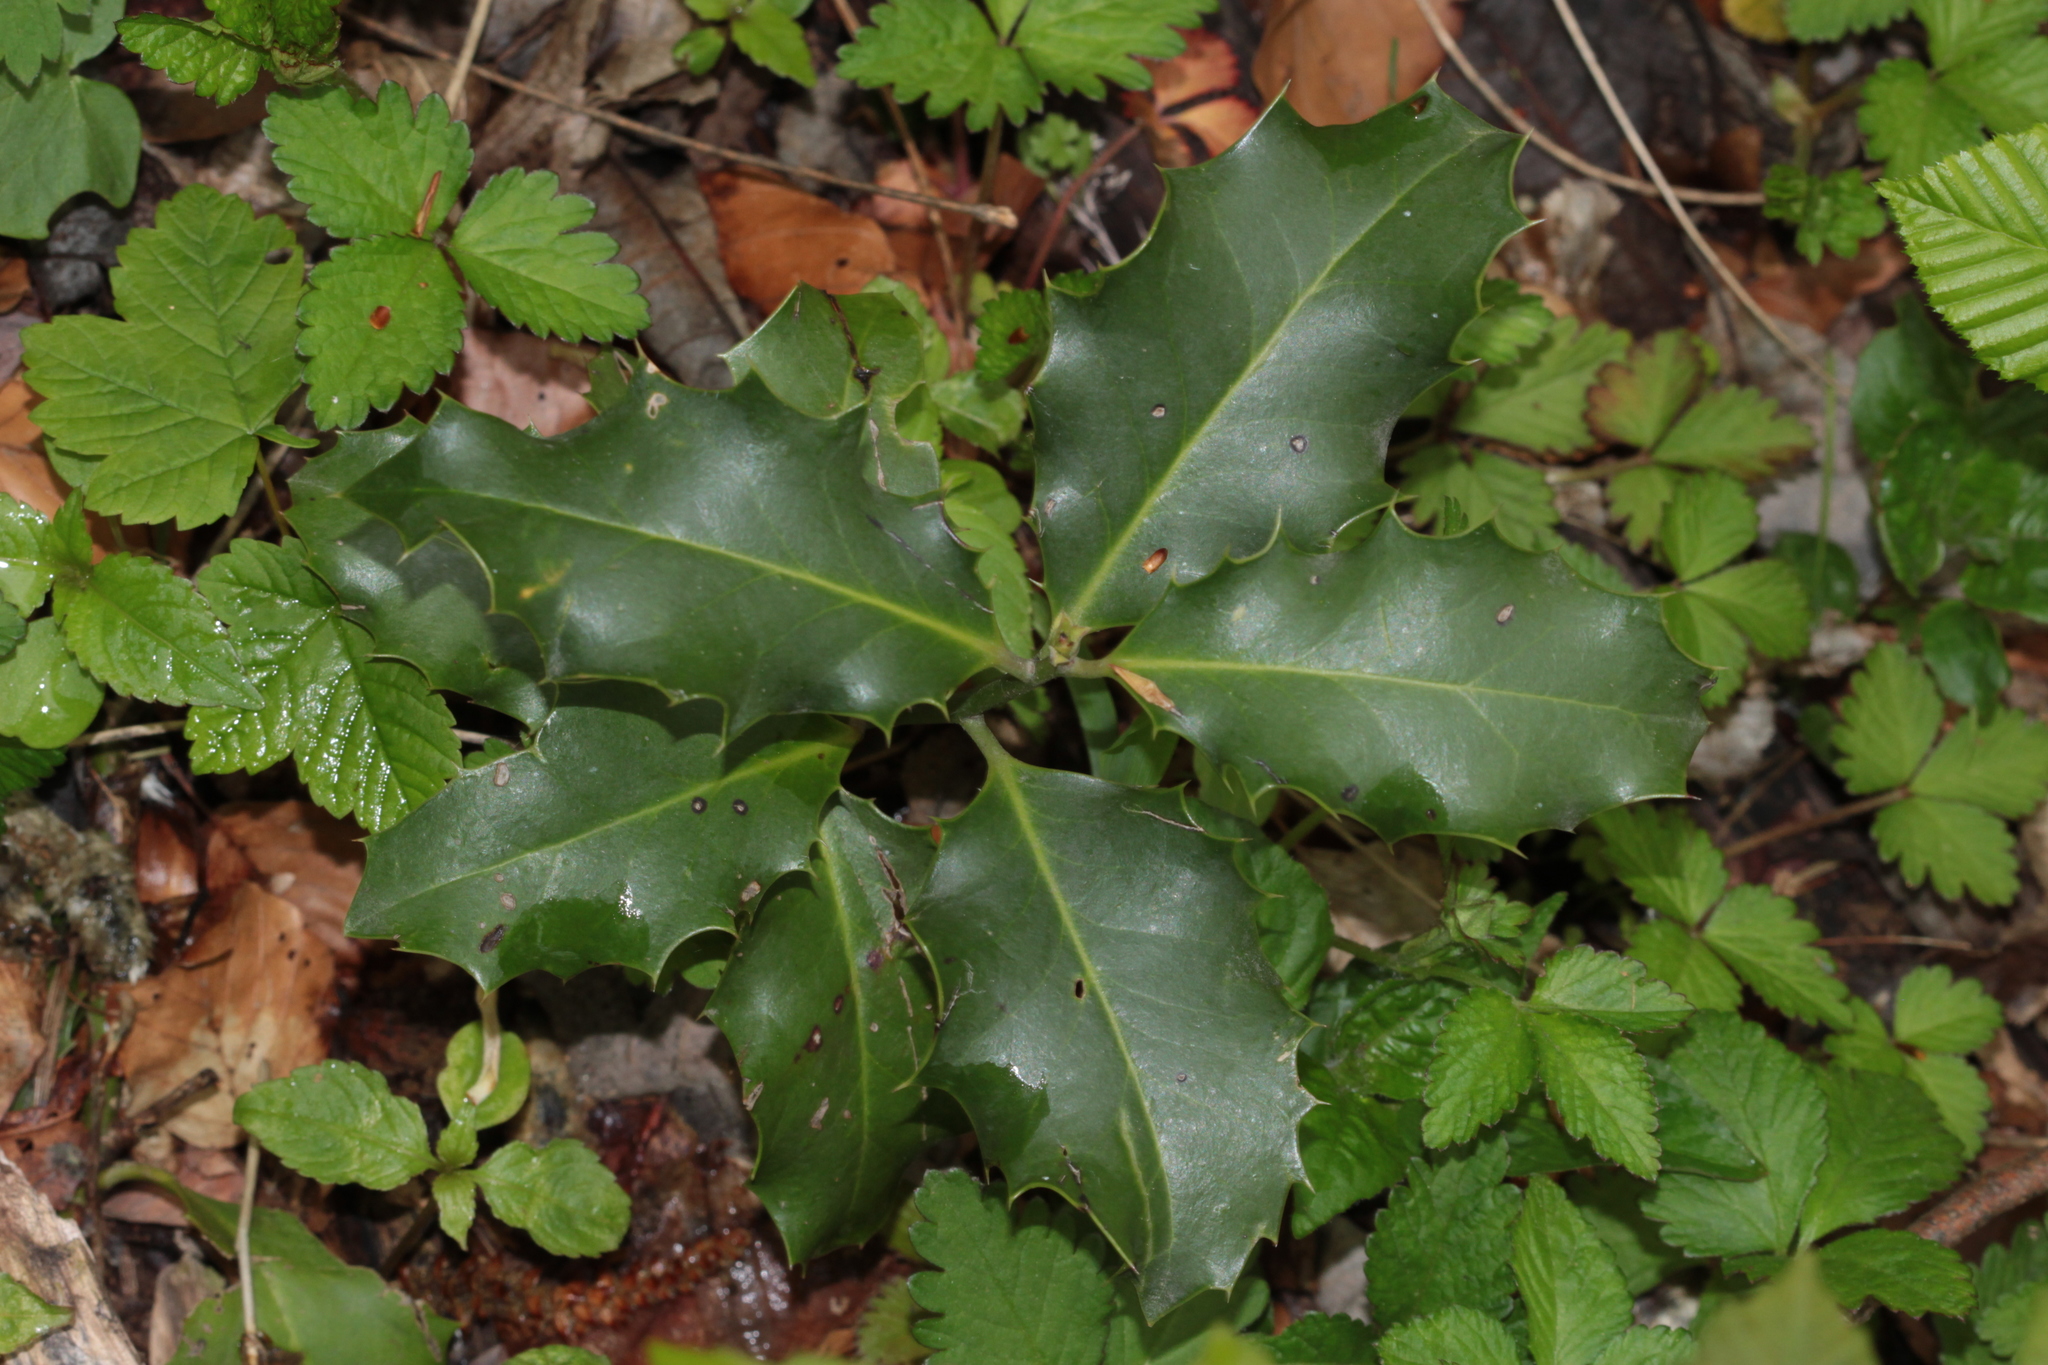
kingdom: Plantae
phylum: Tracheophyta
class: Magnoliopsida
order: Aquifoliales
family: Aquifoliaceae
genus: Ilex
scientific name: Ilex aquifolium
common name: English holly
